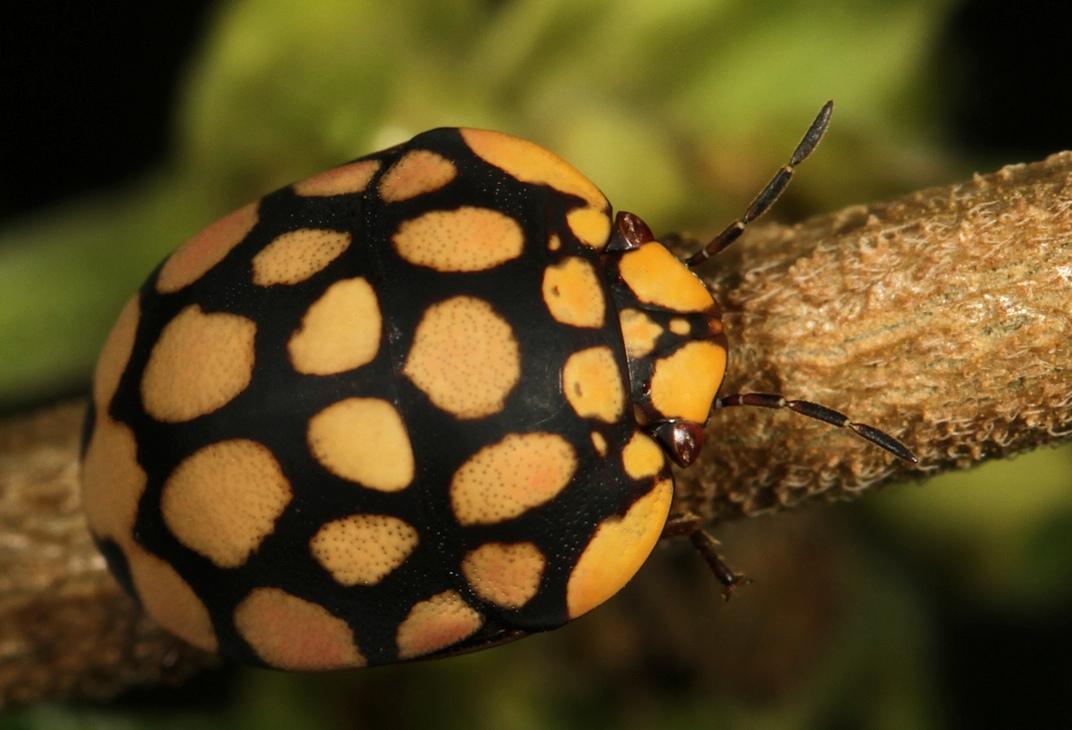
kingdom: Animalia
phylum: Arthropoda
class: Insecta
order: Hemiptera
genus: Steganocerus
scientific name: Steganocerus multipunctatus
